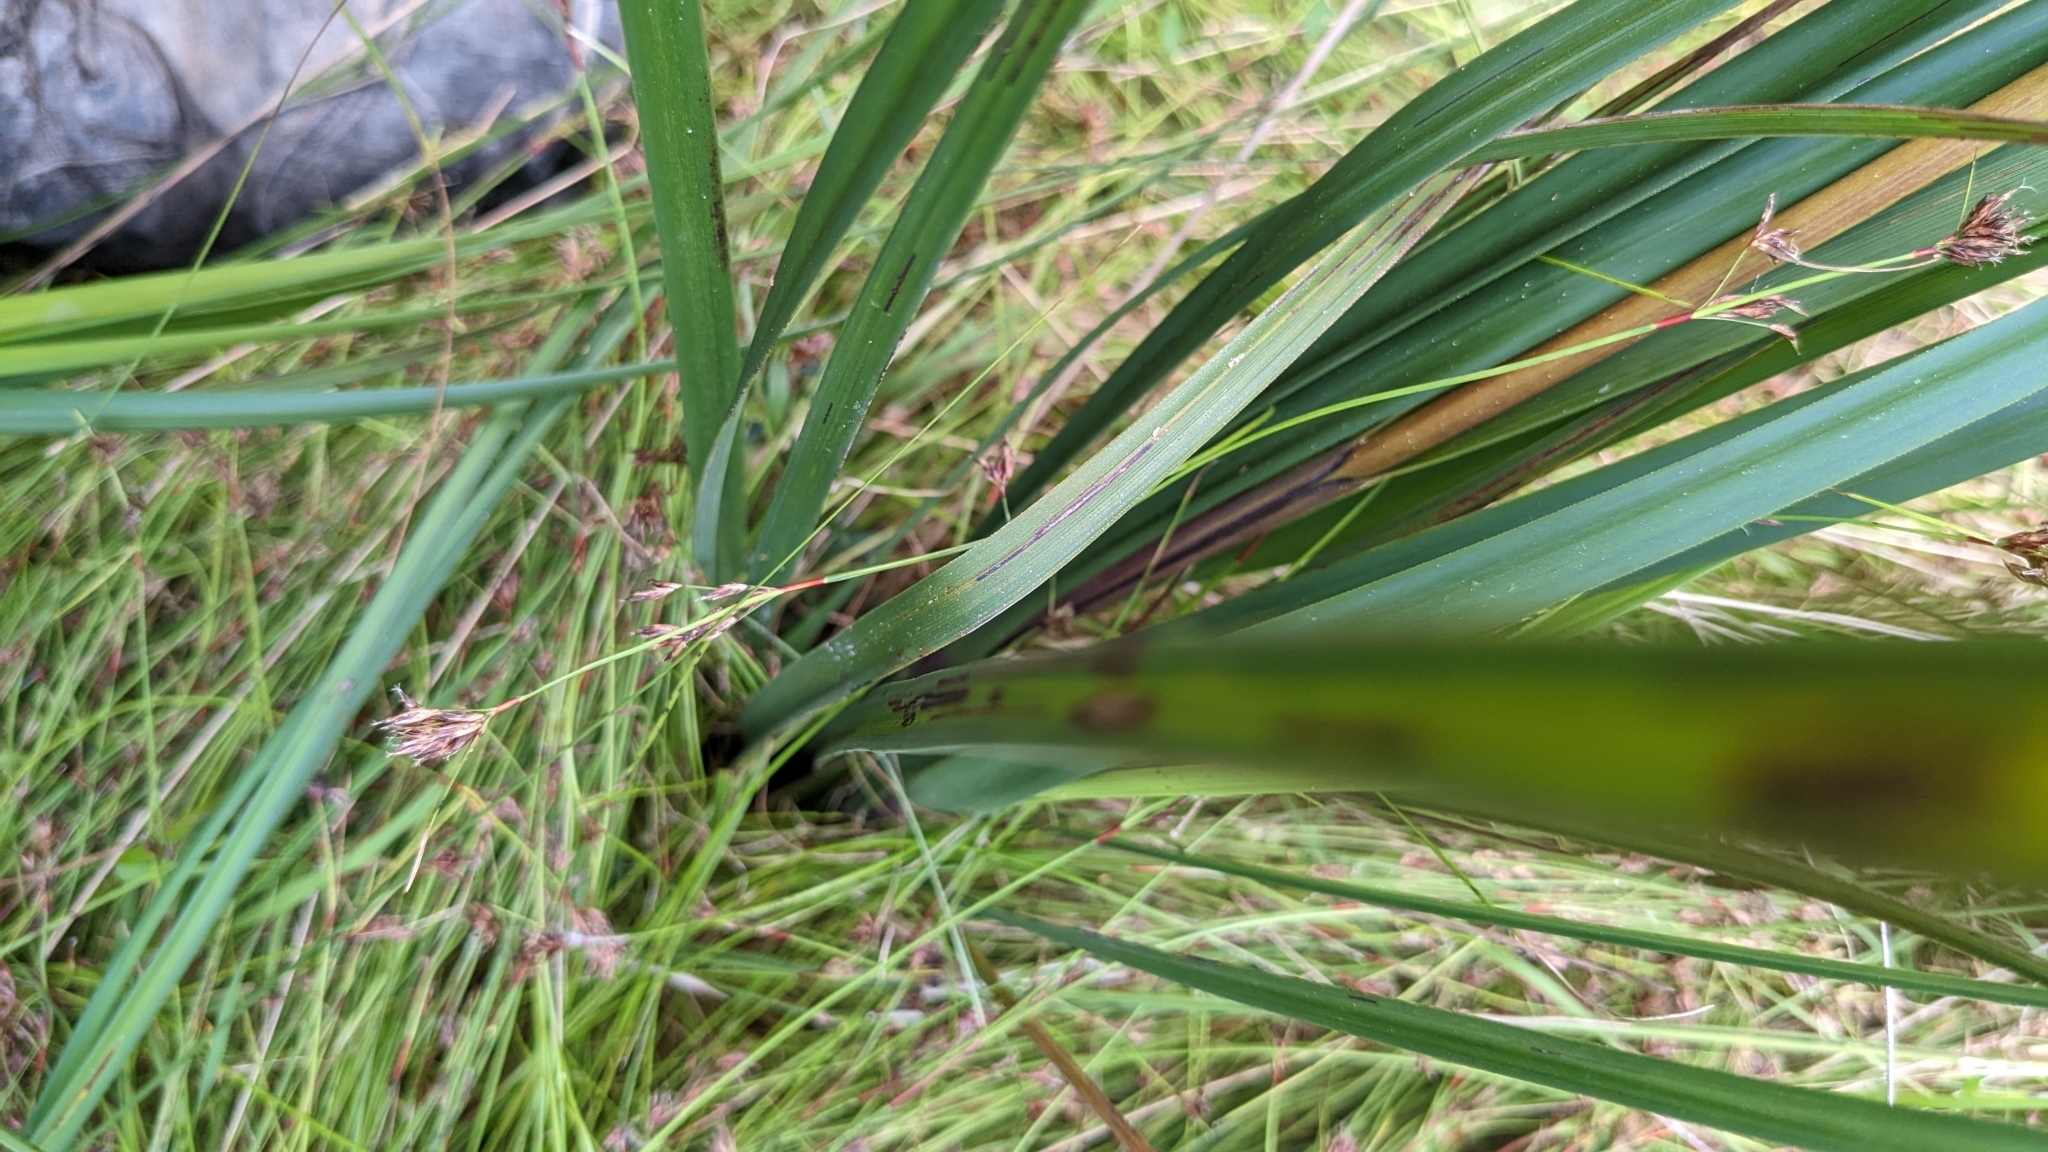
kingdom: Plantae
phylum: Tracheophyta
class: Liliopsida
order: Poales
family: Cyperaceae
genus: Gahnia
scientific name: Gahnia sieberiana
